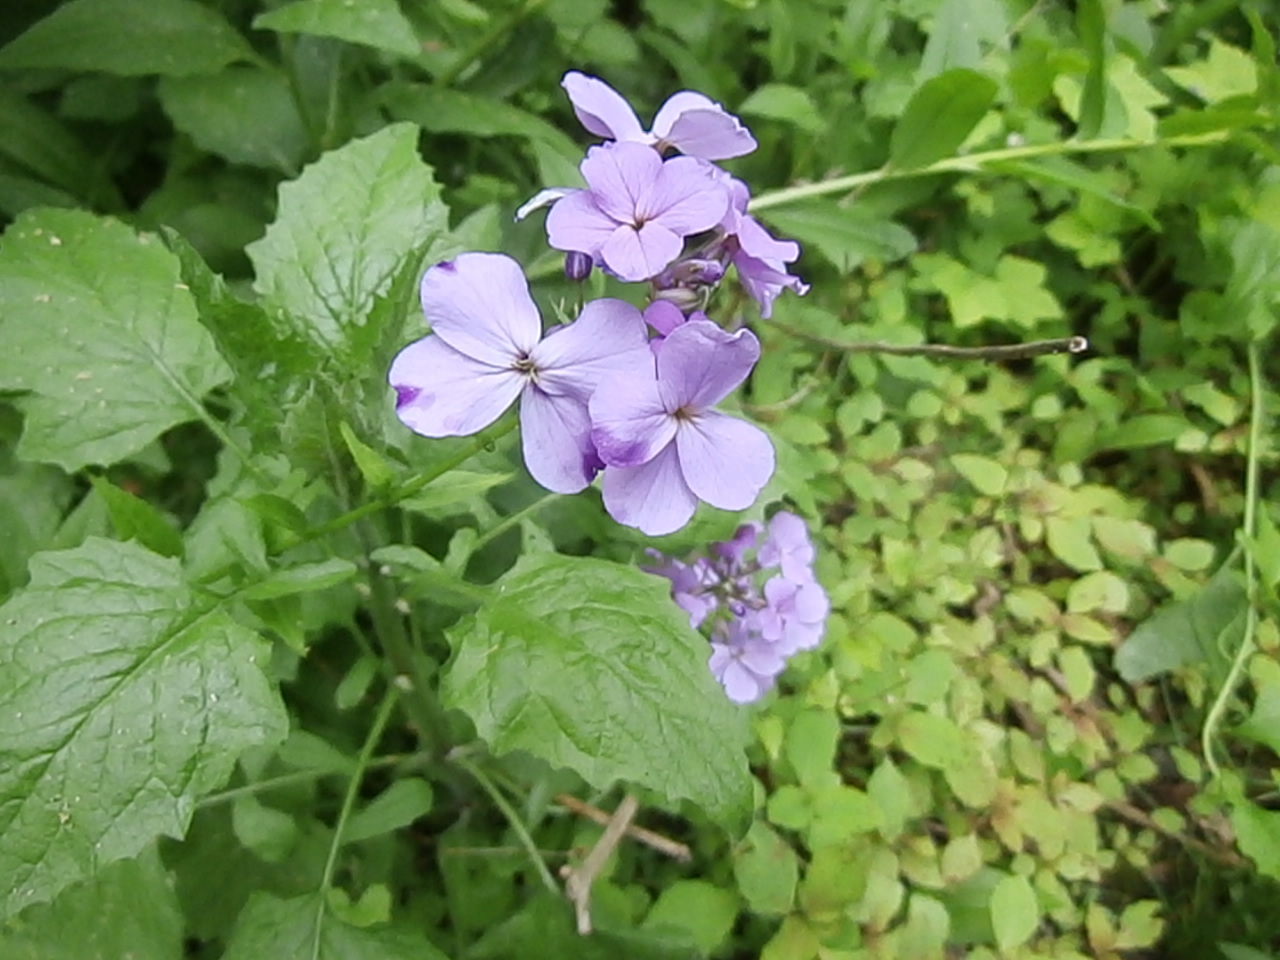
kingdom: Plantae
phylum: Tracheophyta
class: Magnoliopsida
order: Brassicales
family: Brassicaceae
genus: Hesperis
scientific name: Hesperis matronalis
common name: Dame's-violet
